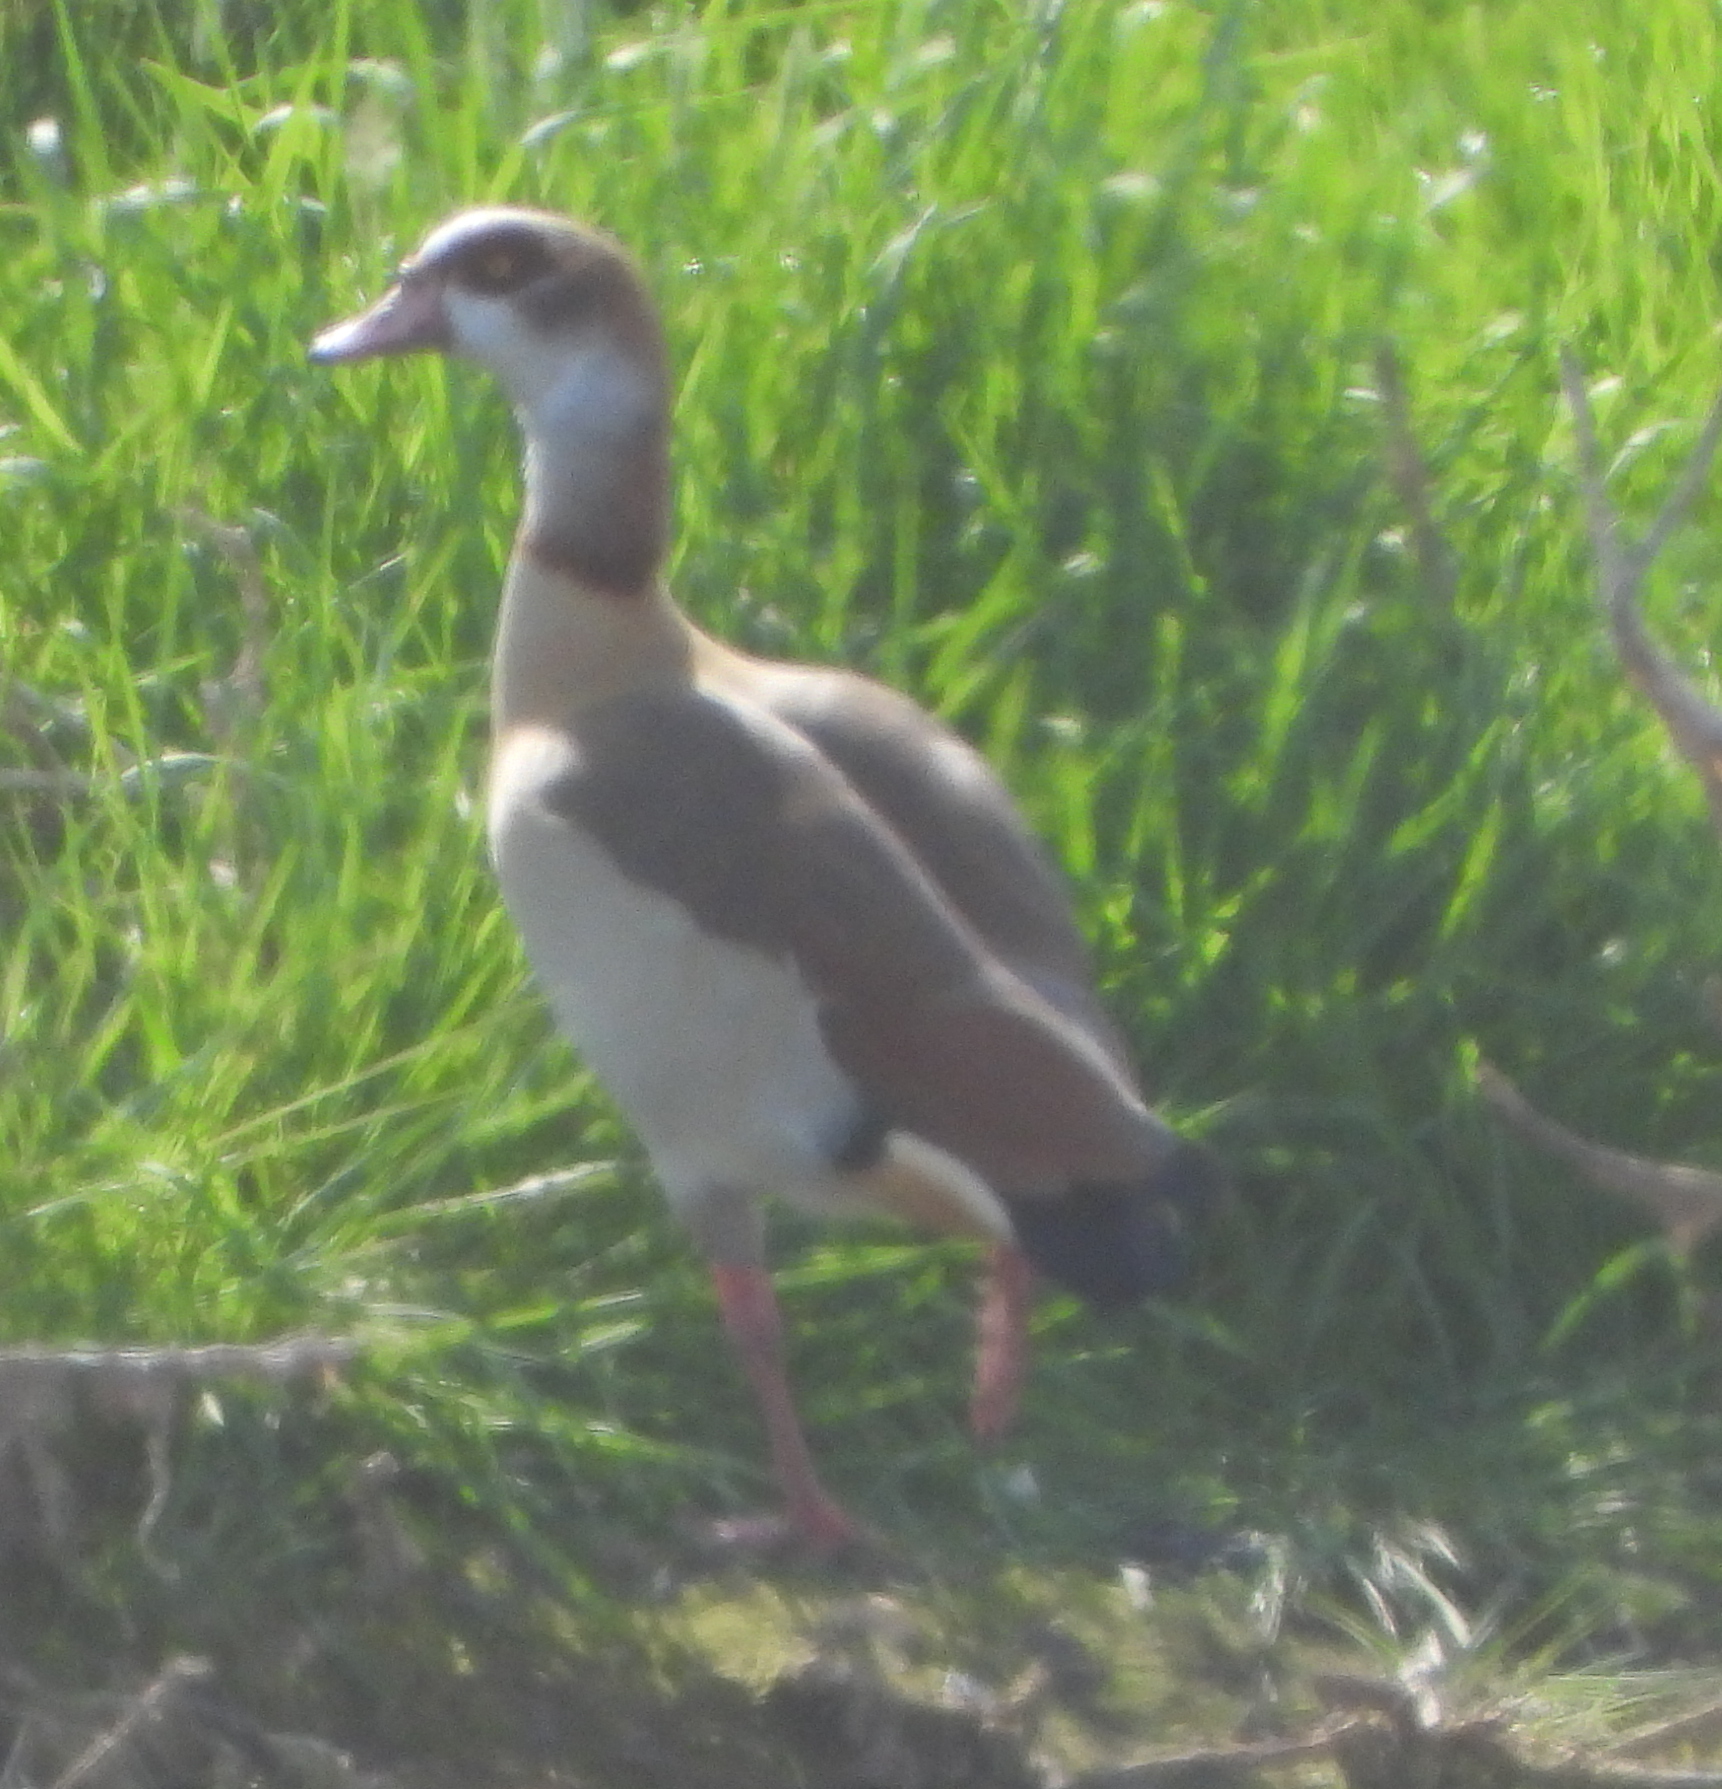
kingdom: Animalia
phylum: Chordata
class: Aves
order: Anseriformes
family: Anatidae
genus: Alopochen
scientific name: Alopochen aegyptiaca
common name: Egyptian goose
